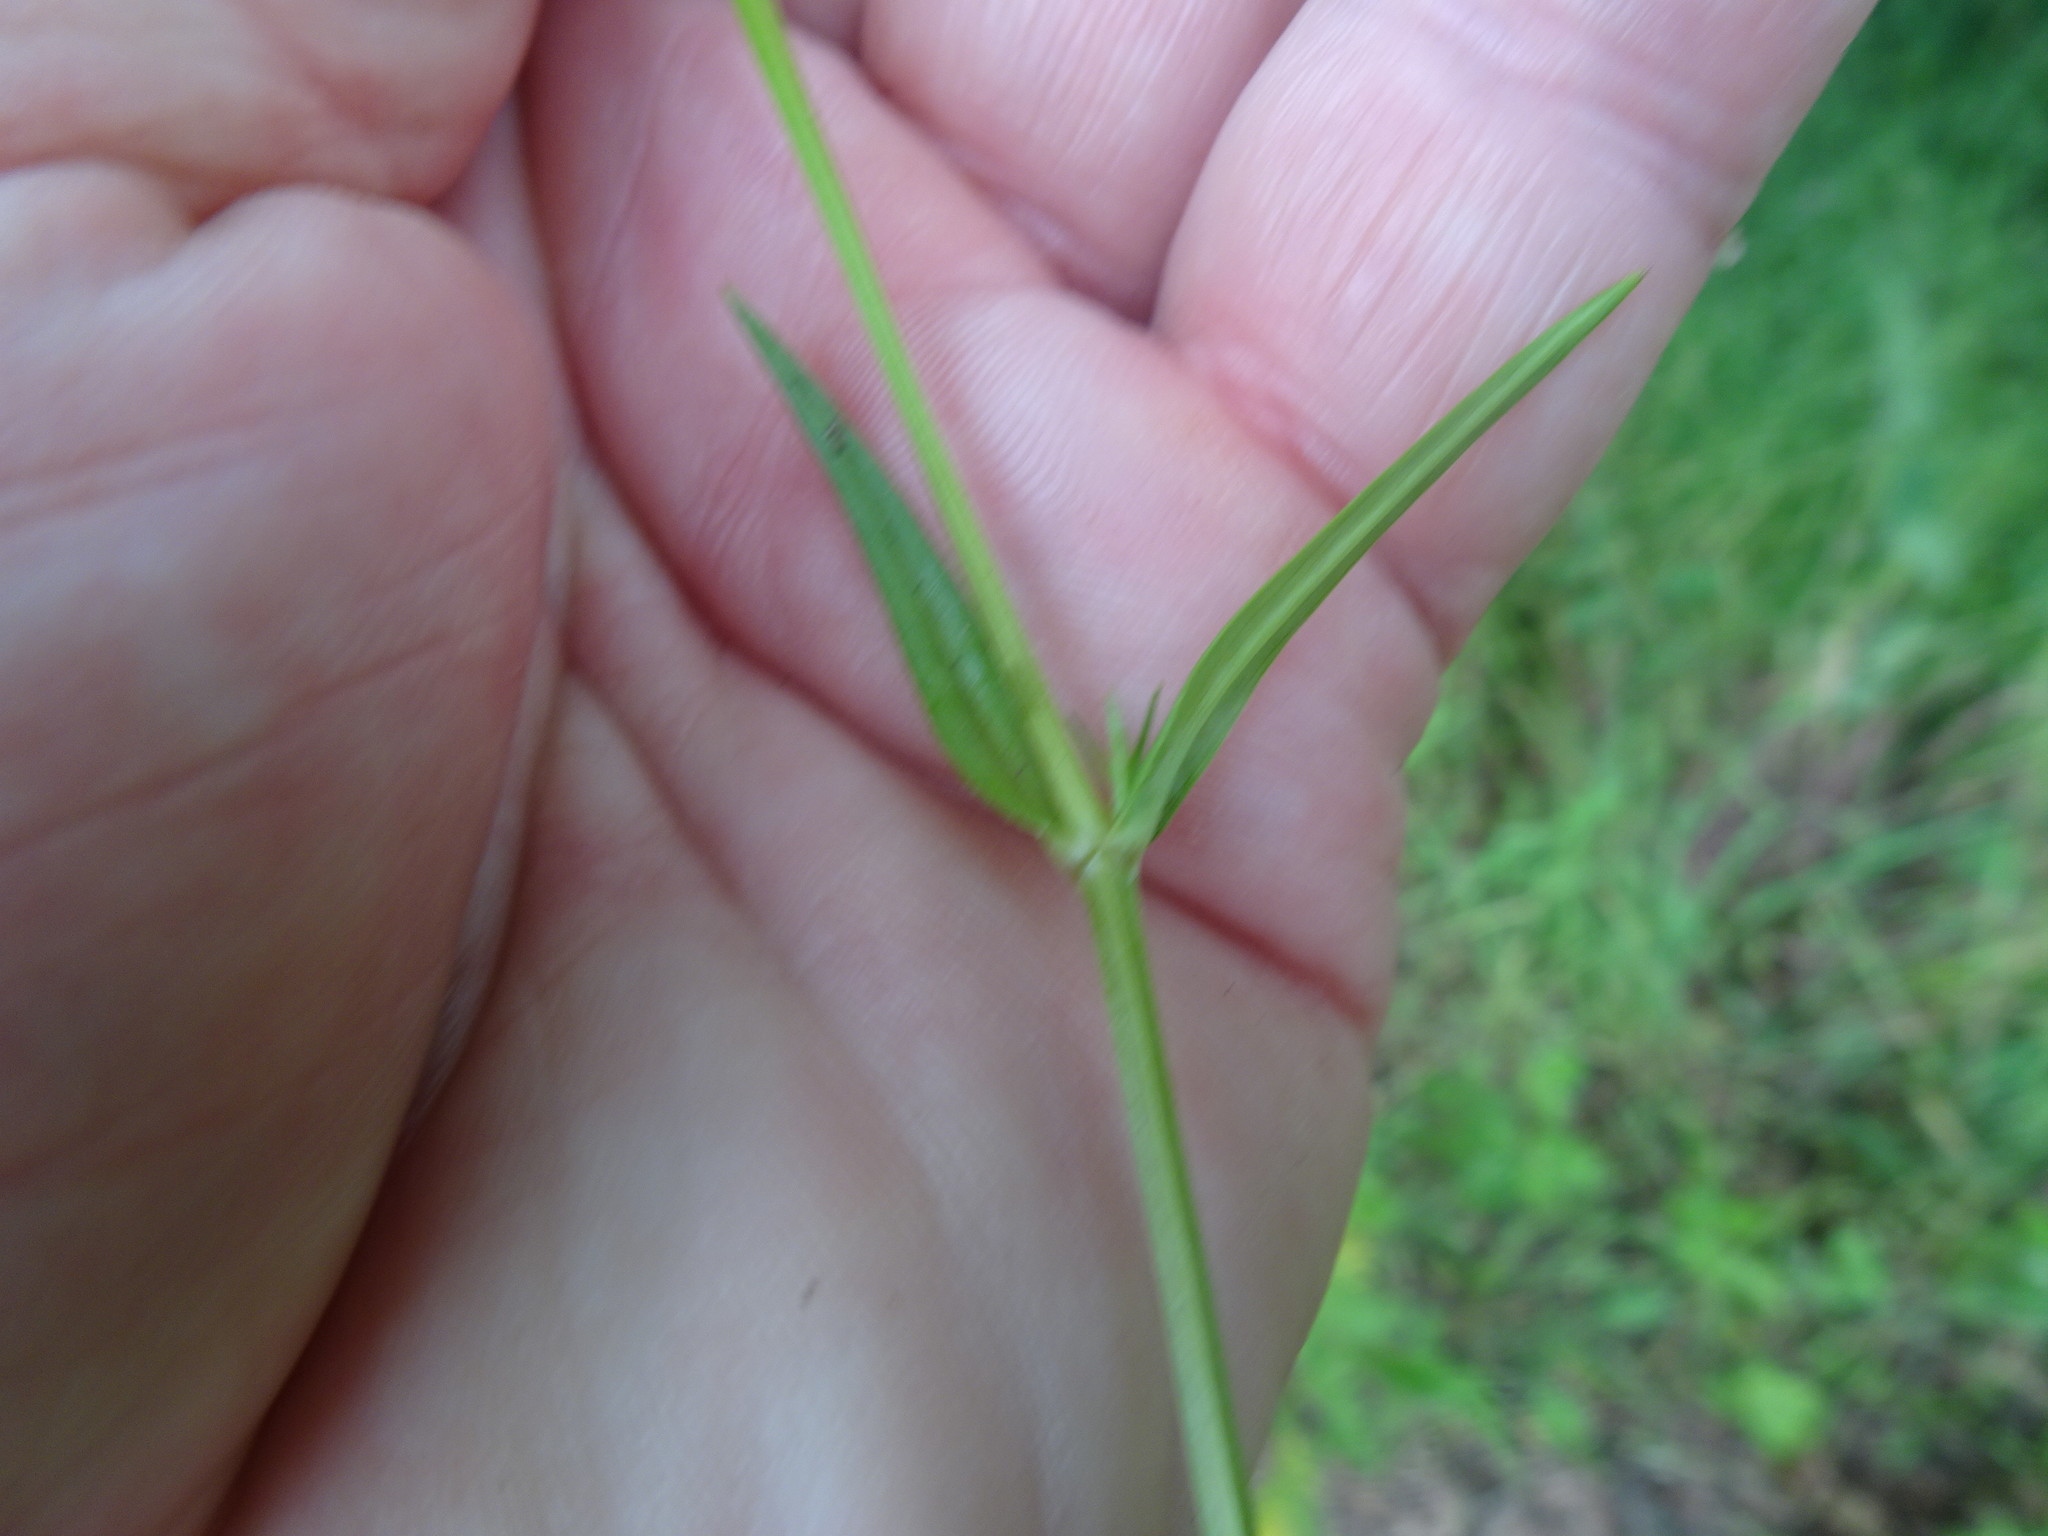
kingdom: Plantae
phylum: Tracheophyta
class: Magnoliopsida
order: Caryophyllales
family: Caryophyllaceae
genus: Stellaria
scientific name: Stellaria graminea
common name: Grass-like starwort
